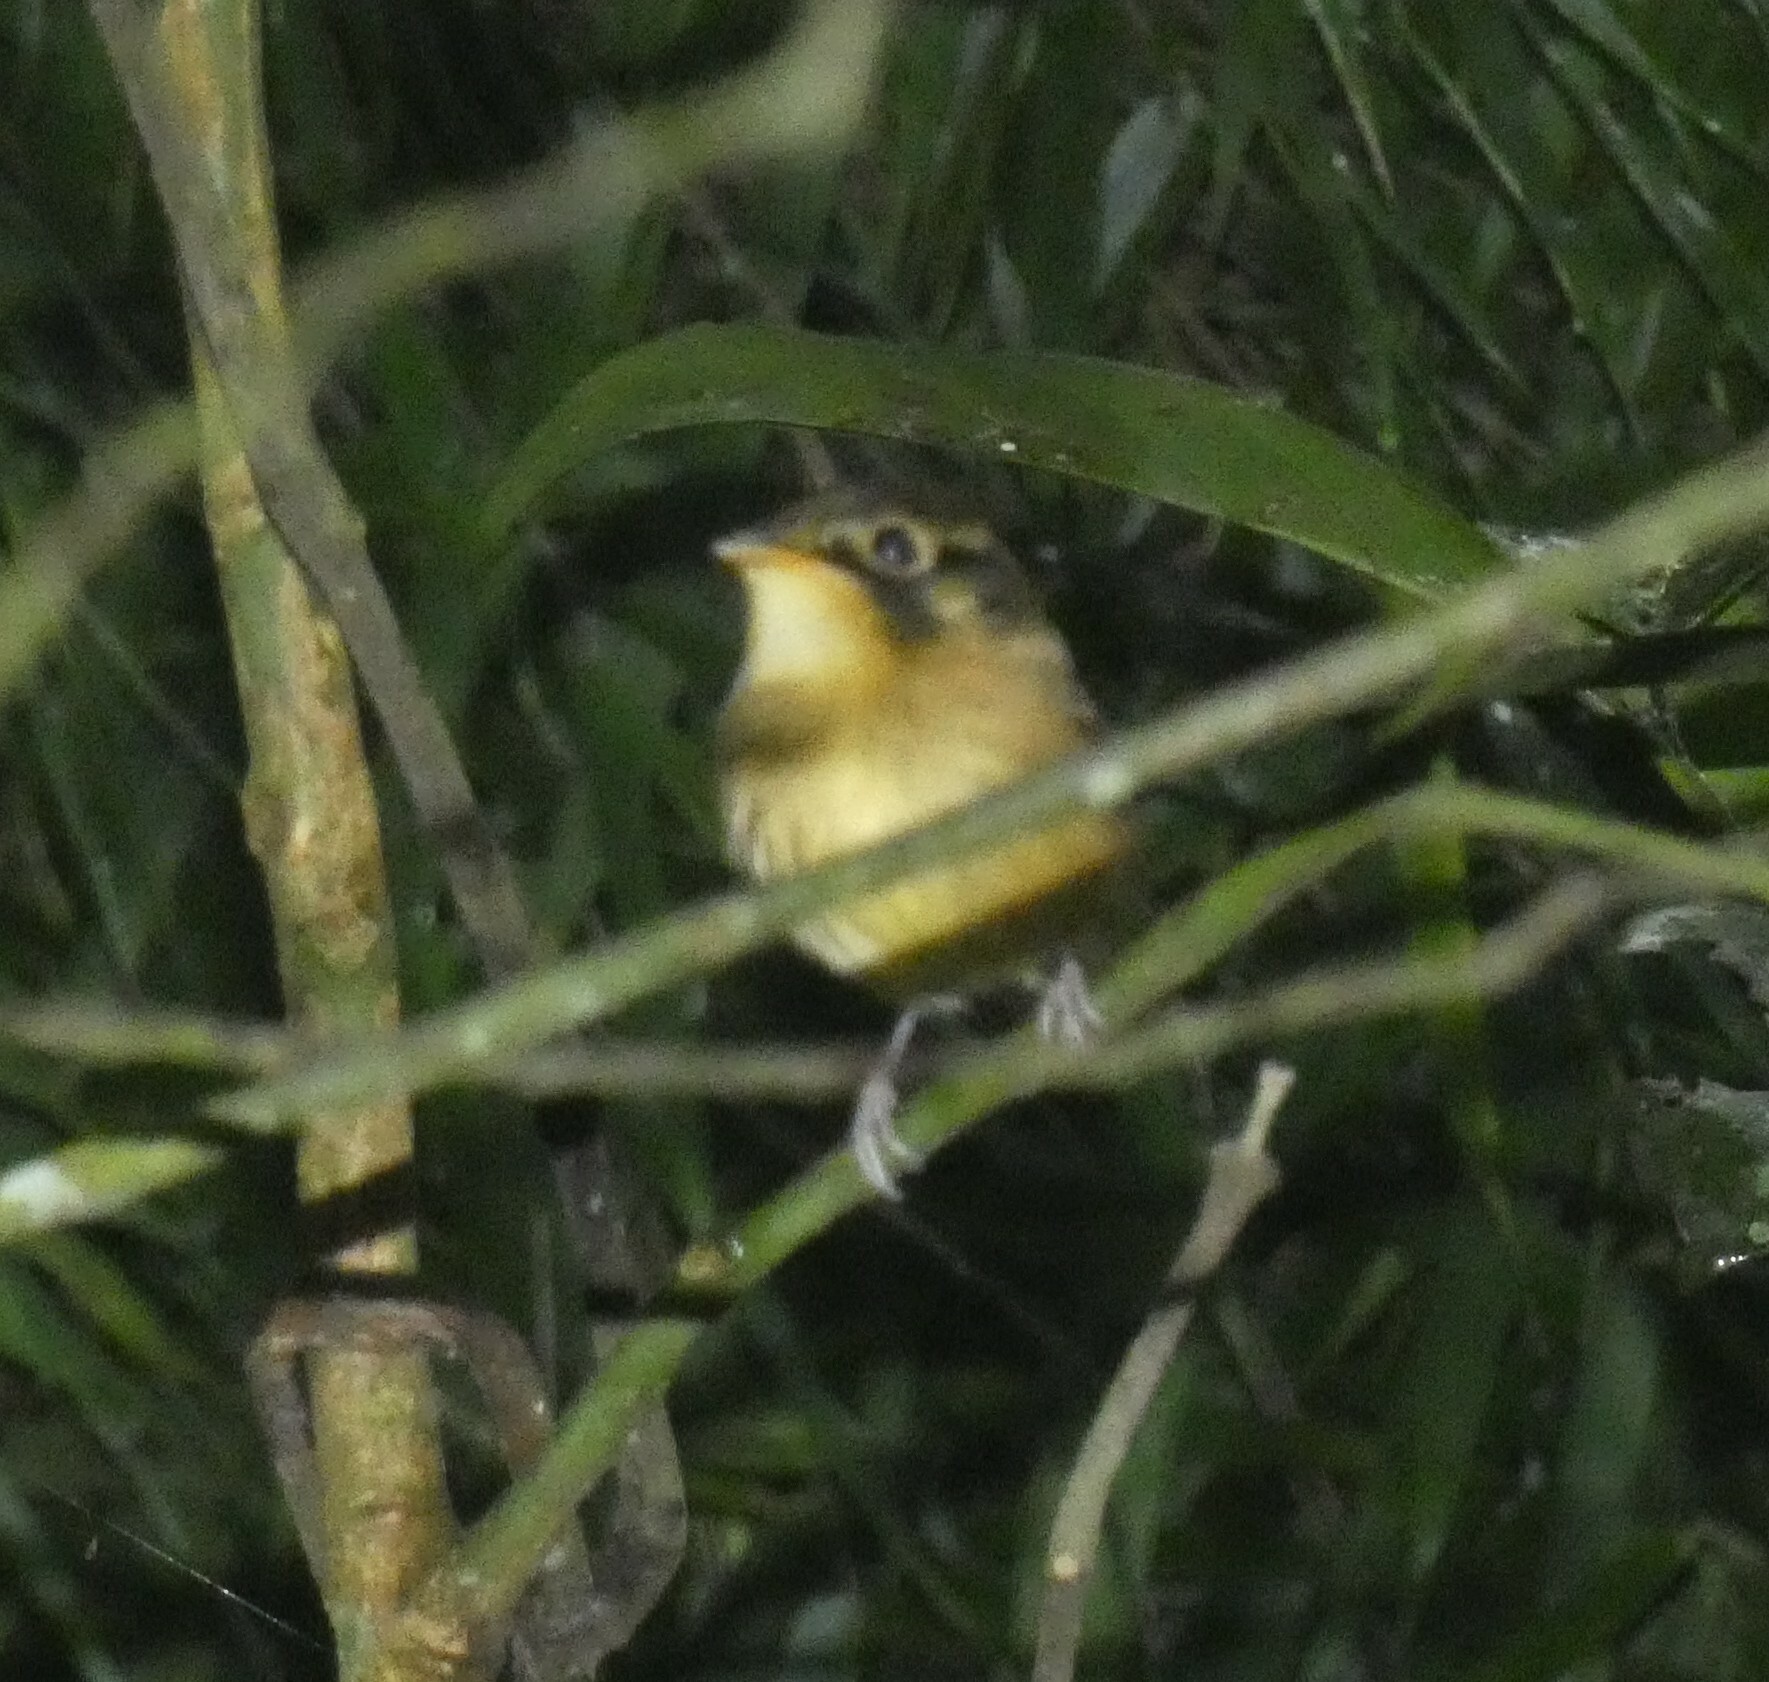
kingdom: Animalia
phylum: Chordata
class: Aves
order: Passeriformes
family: Tyrannidae
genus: Platyrinchus
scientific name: Platyrinchus mystaceus
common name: White-throated spadebill
